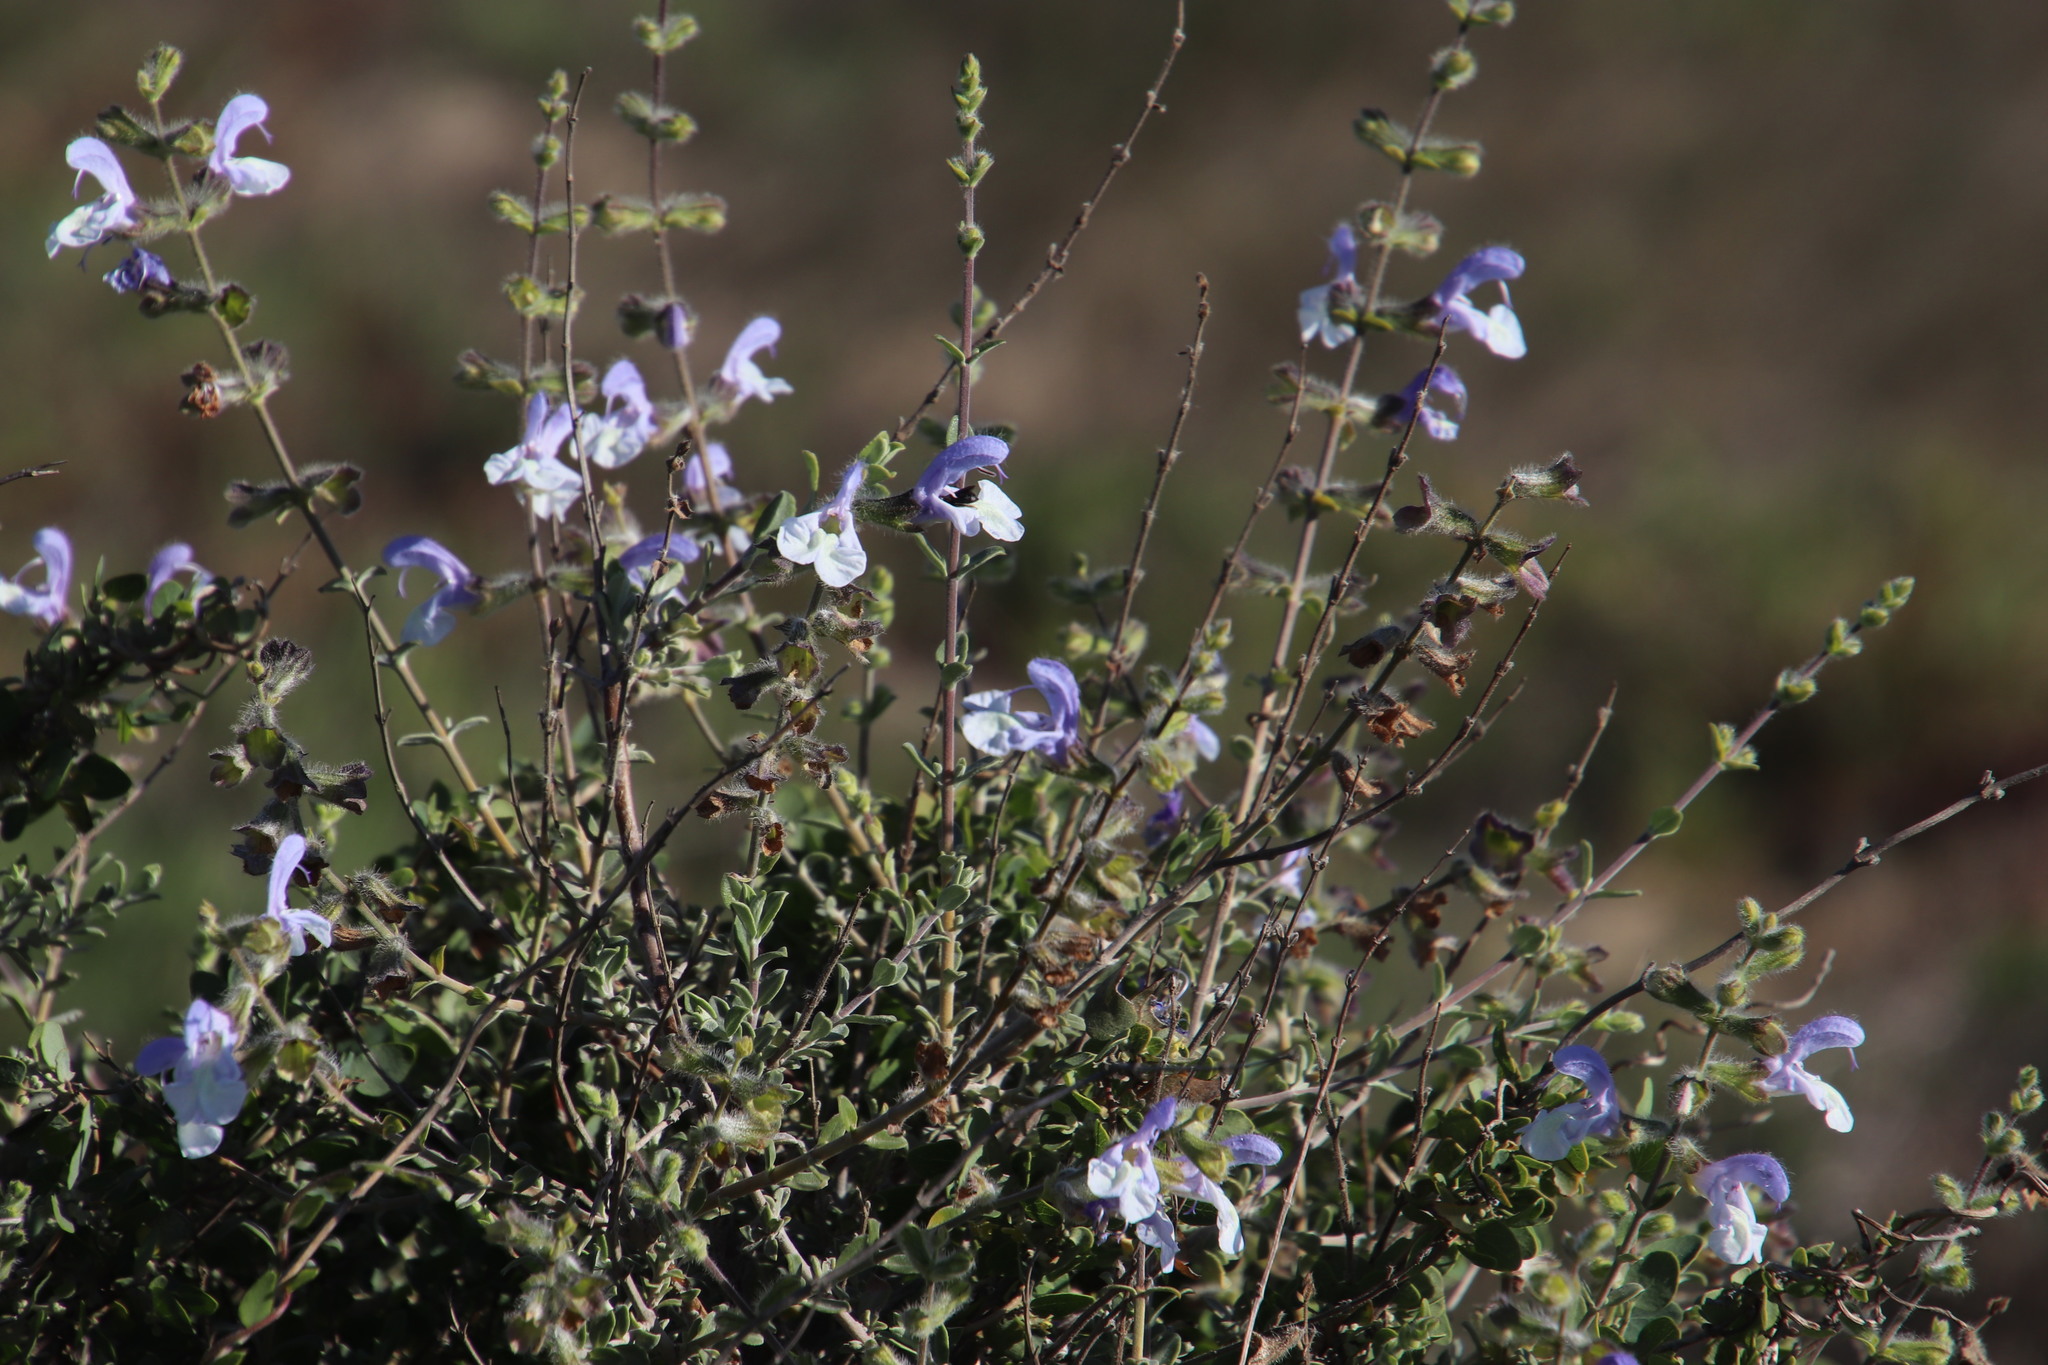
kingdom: Plantae
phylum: Tracheophyta
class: Magnoliopsida
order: Lamiales
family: Lamiaceae
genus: Salvia
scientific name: Salvia africana
